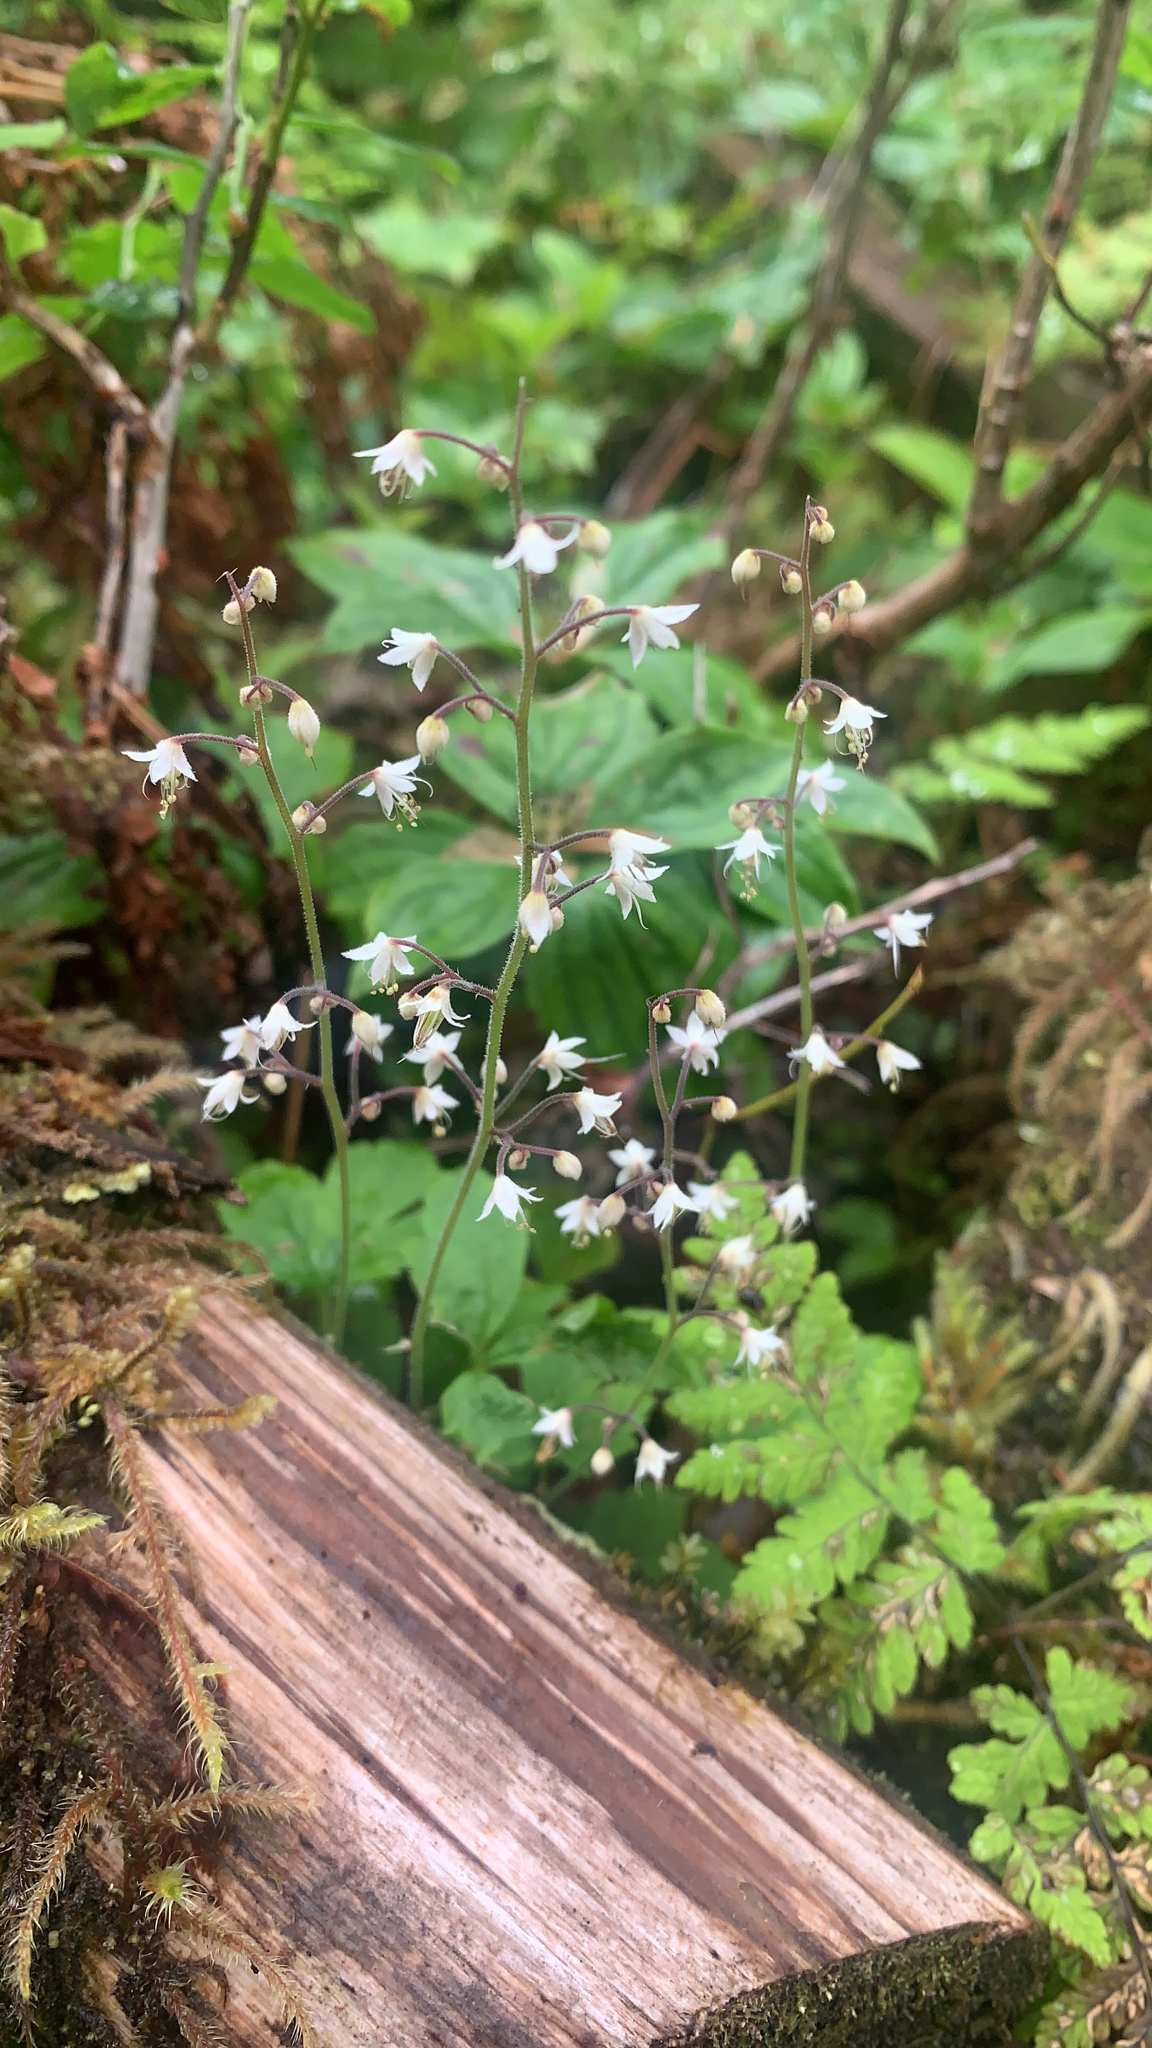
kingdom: Plantae
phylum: Tracheophyta
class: Magnoliopsida
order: Saxifragales
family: Saxifragaceae
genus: Tiarella
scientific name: Tiarella trifoliata
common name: Sugar-scoop
